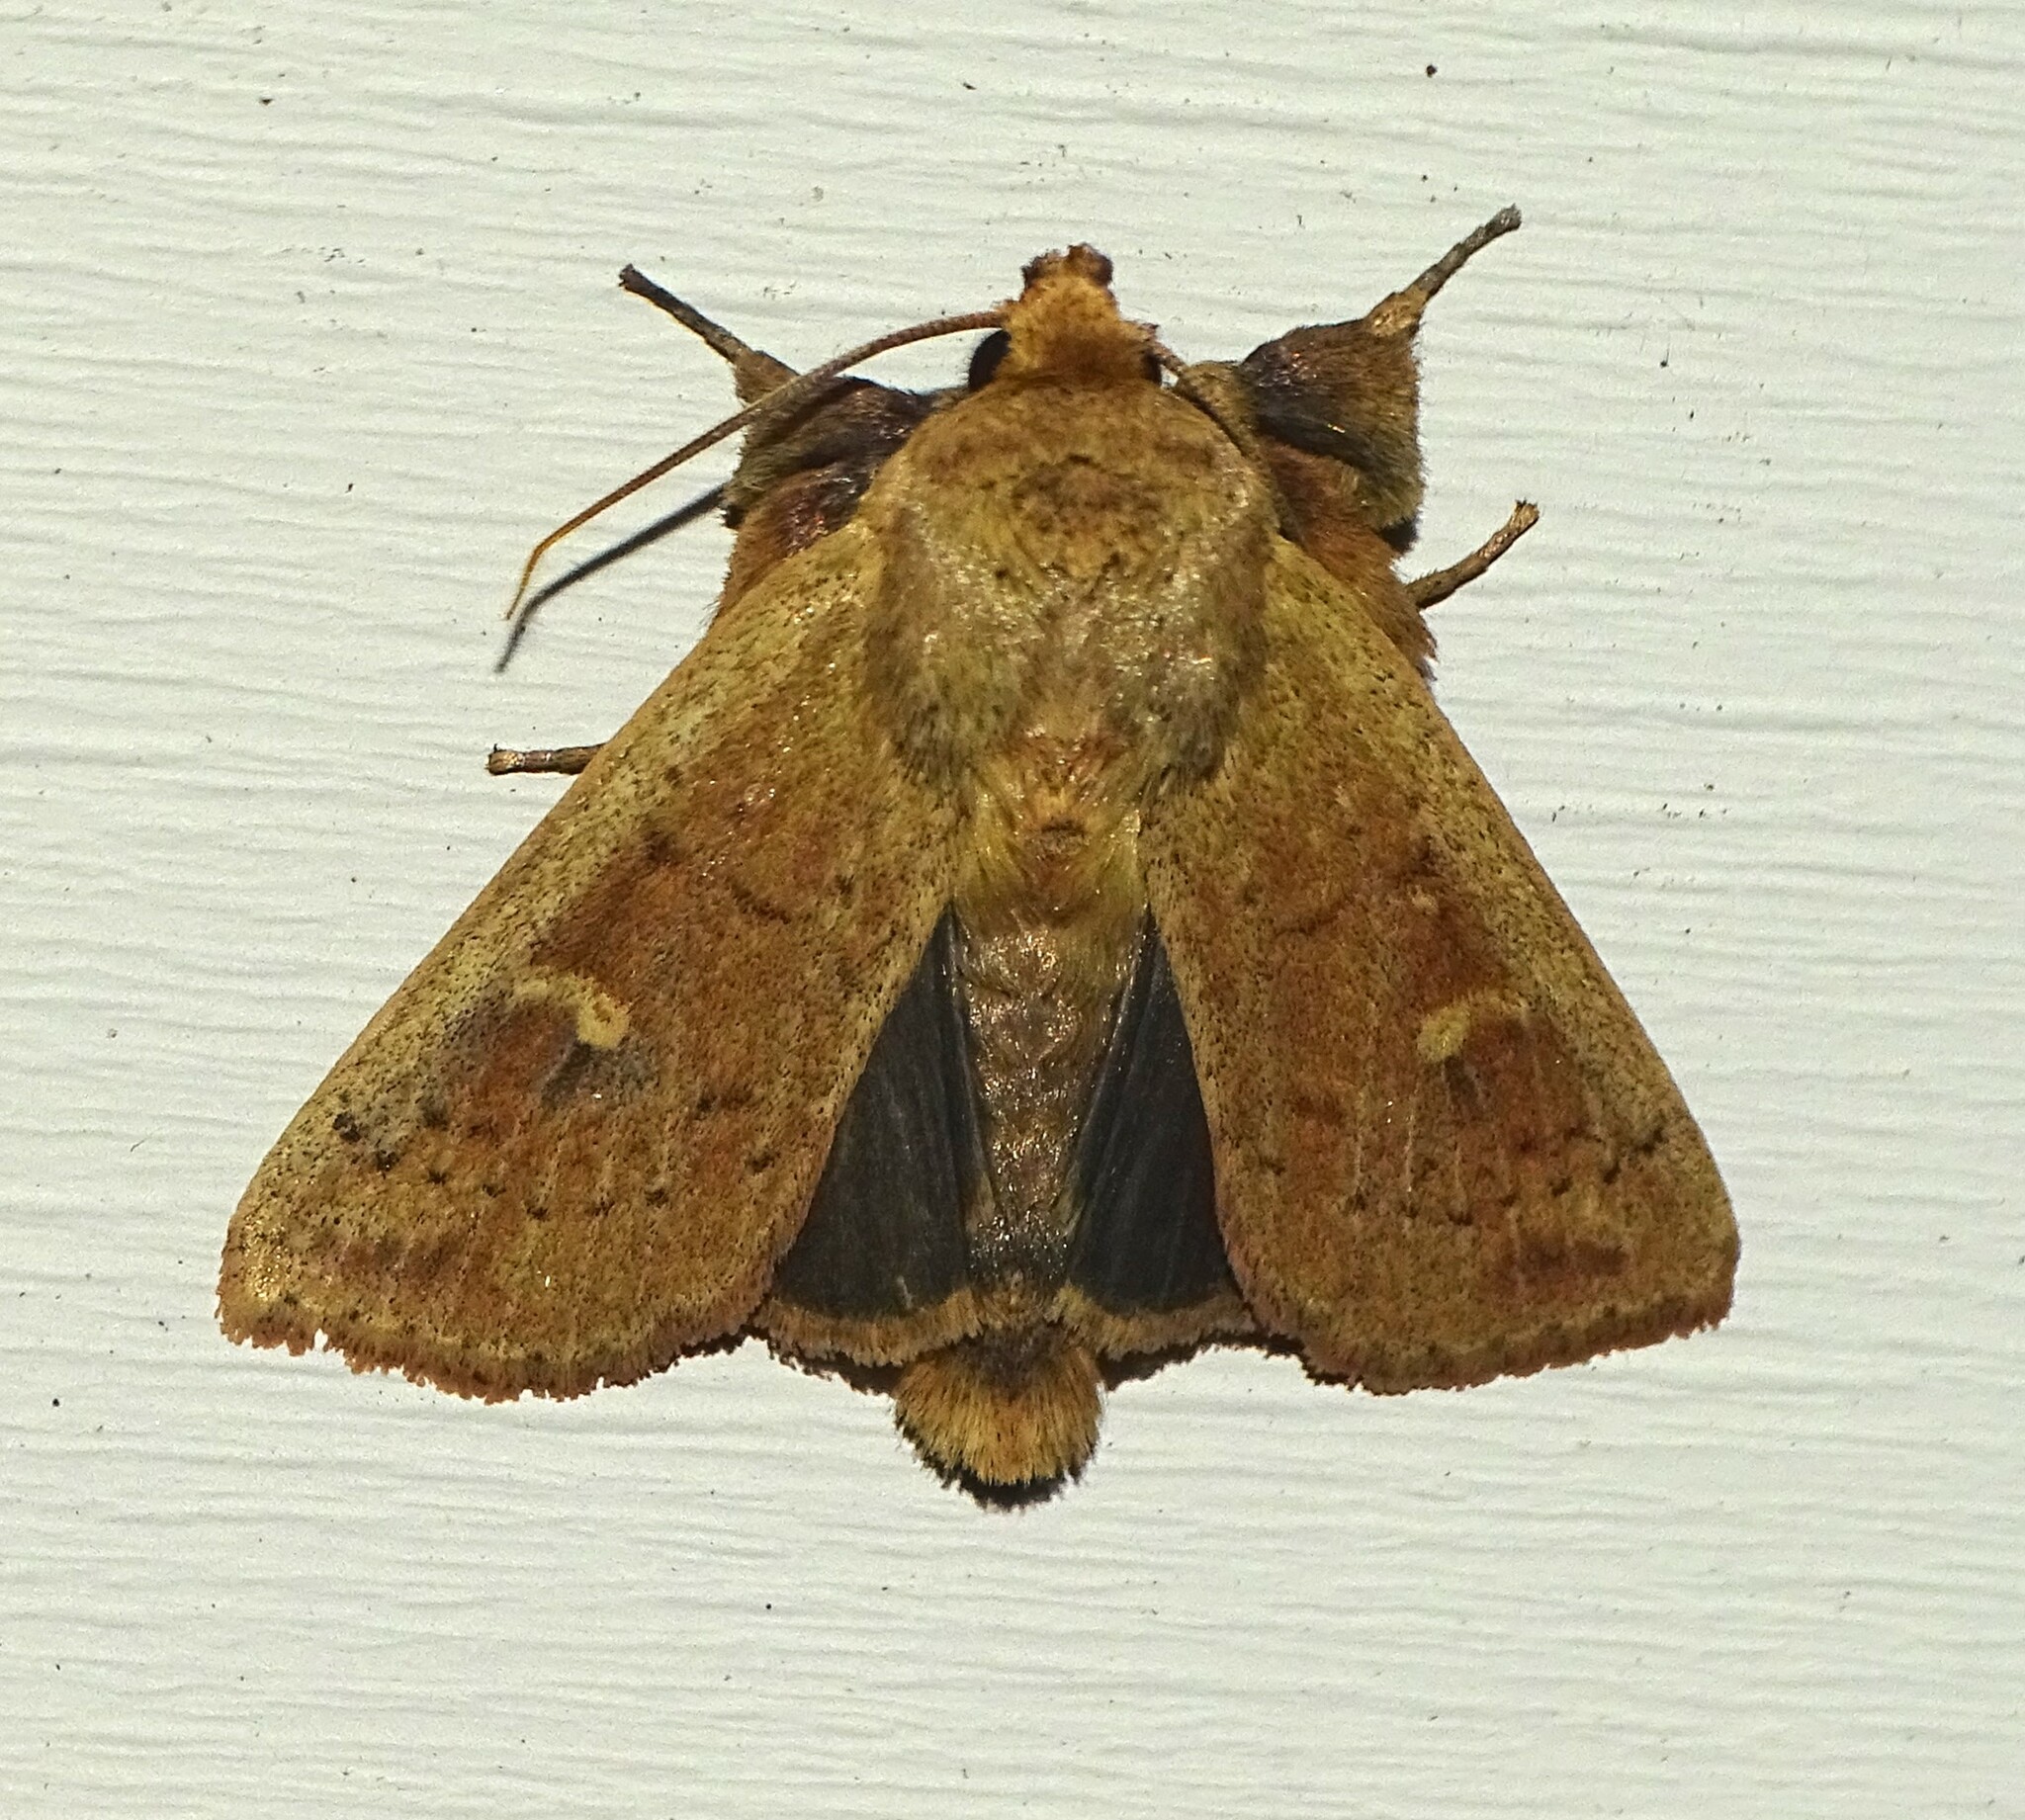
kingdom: Animalia
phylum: Arthropoda
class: Insecta
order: Lepidoptera
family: Noctuidae
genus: Leucania
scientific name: Leucania pseudargyria
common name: False wainscot
